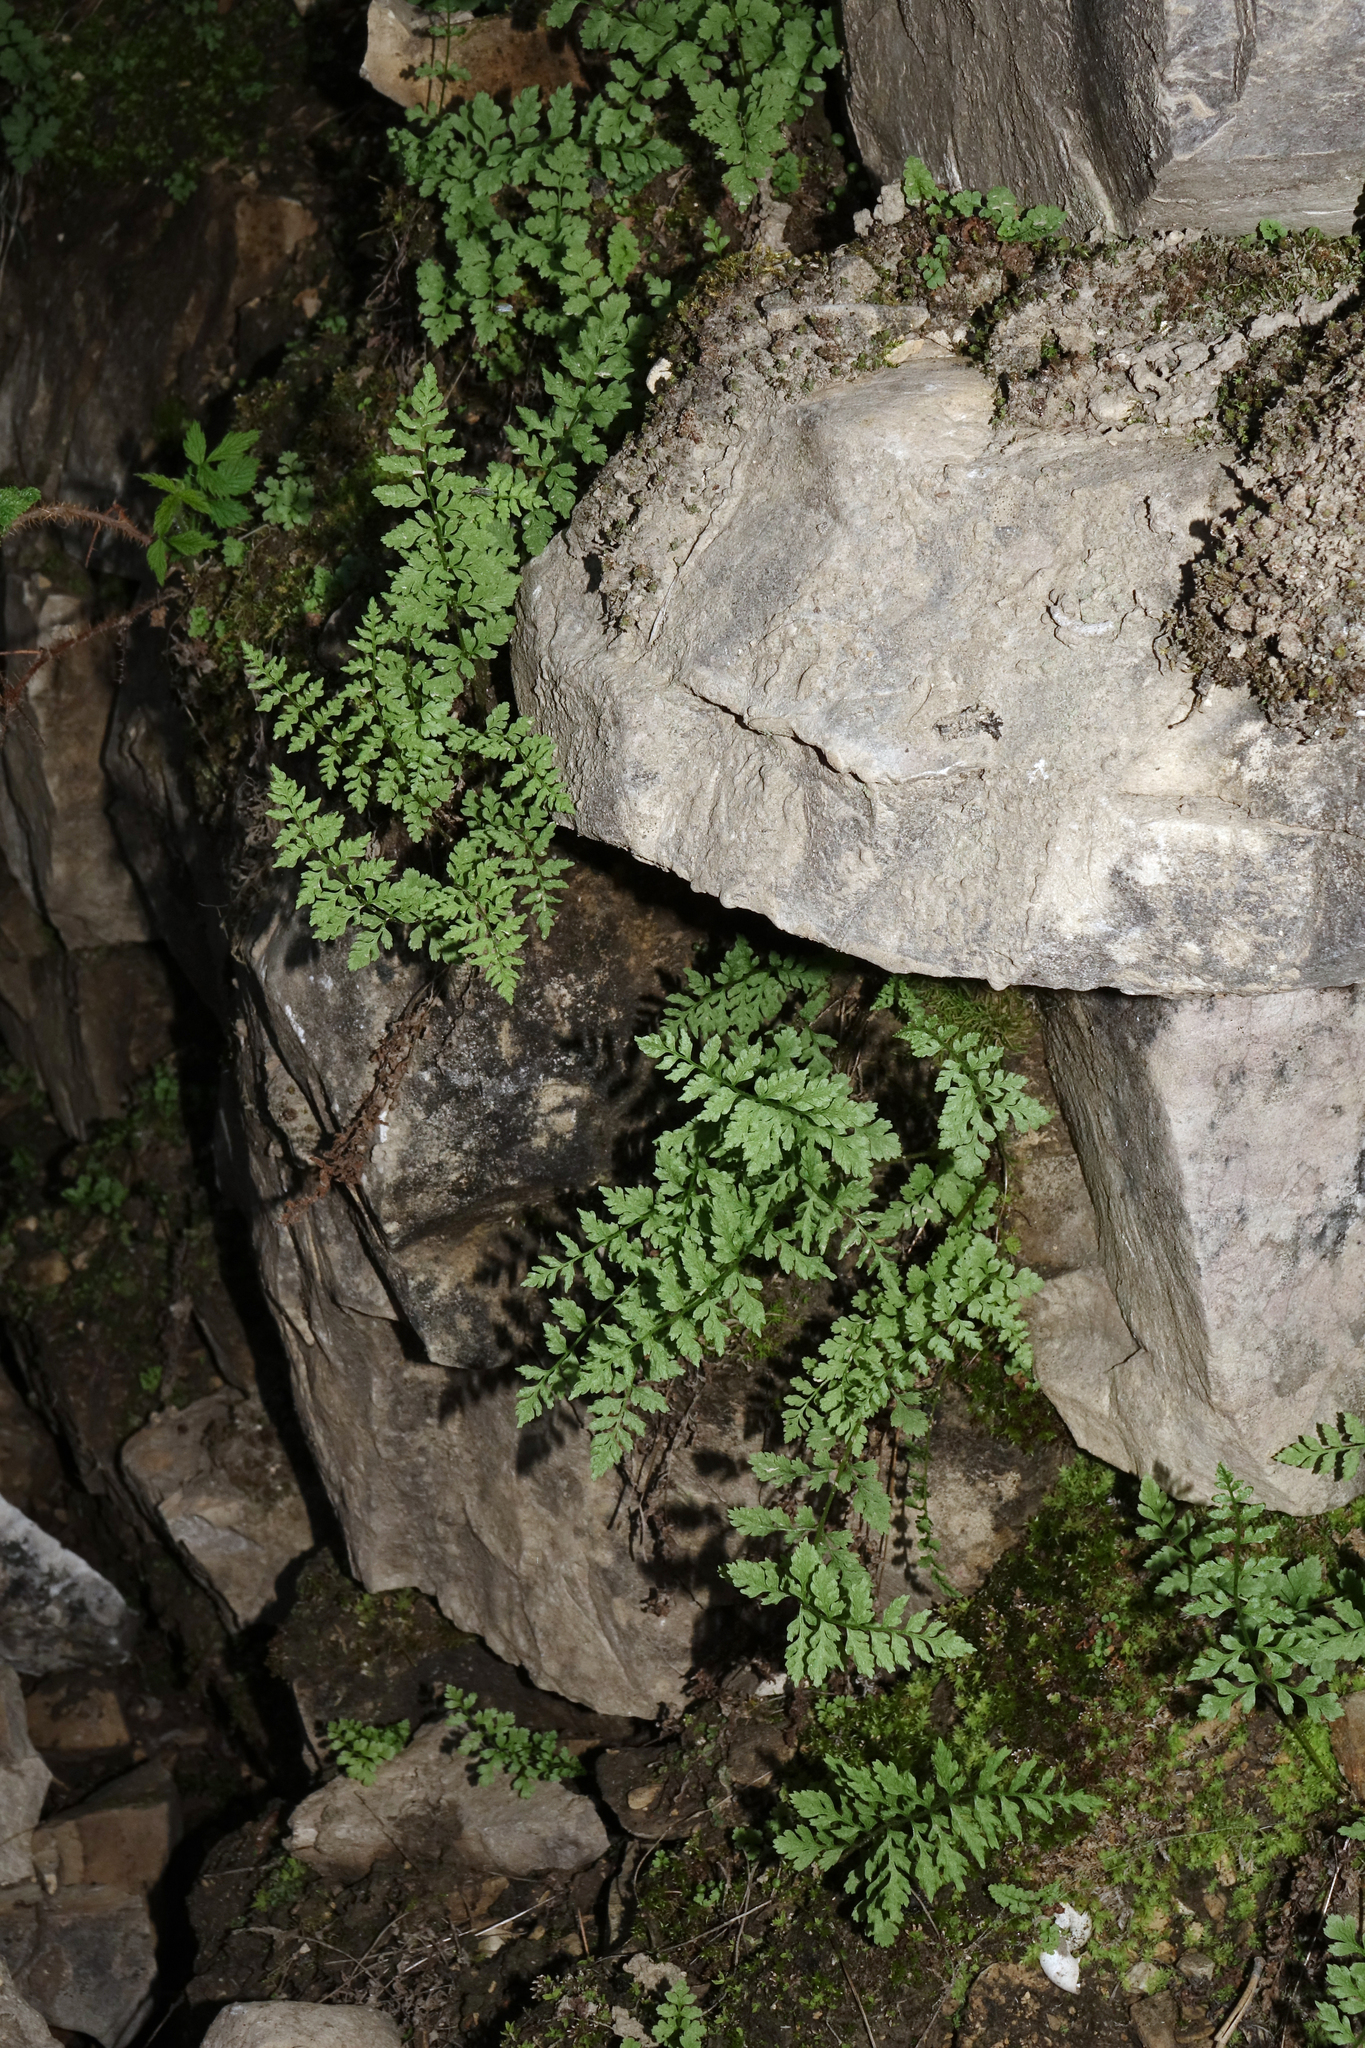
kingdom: Plantae
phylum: Tracheophyta
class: Polypodiopsida
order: Polypodiales
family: Cystopteridaceae
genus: Cystopteris
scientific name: Cystopteris fragilis
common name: Brittle bladder fern
